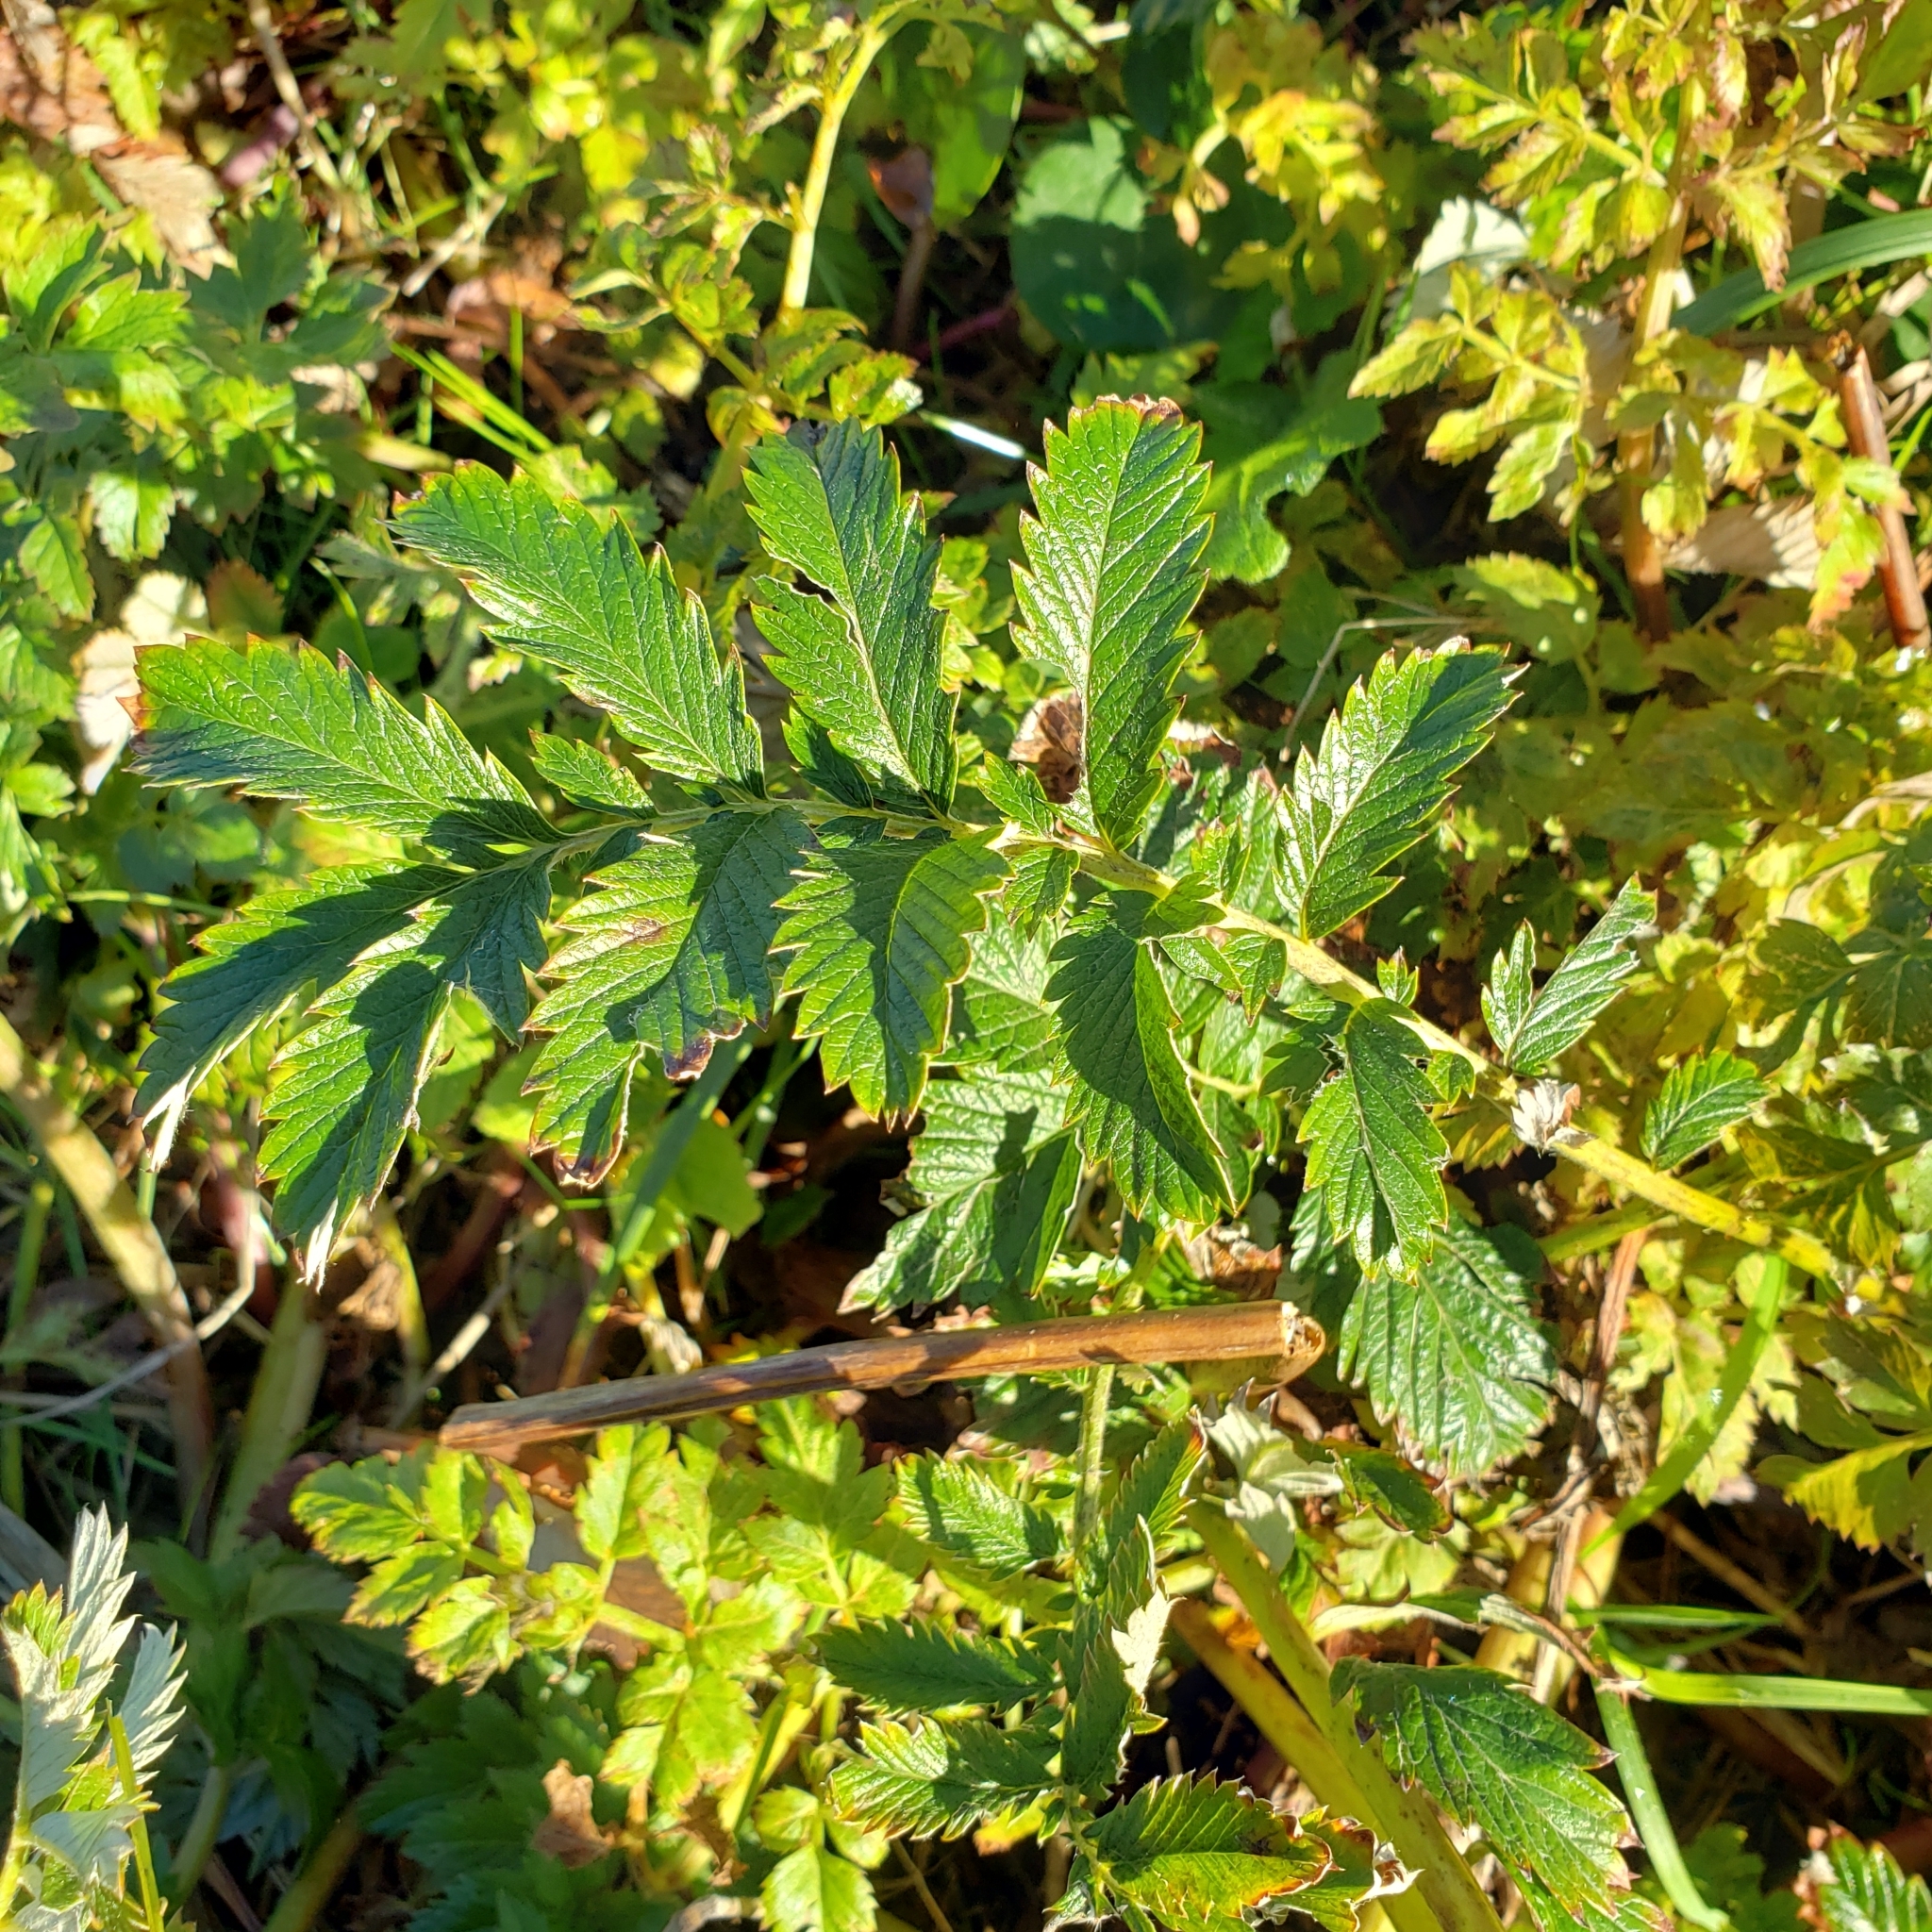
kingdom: Plantae
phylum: Tracheophyta
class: Magnoliopsida
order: Rosales
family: Rosaceae
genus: Argentina
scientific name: Argentina anserina
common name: Common silverweed
